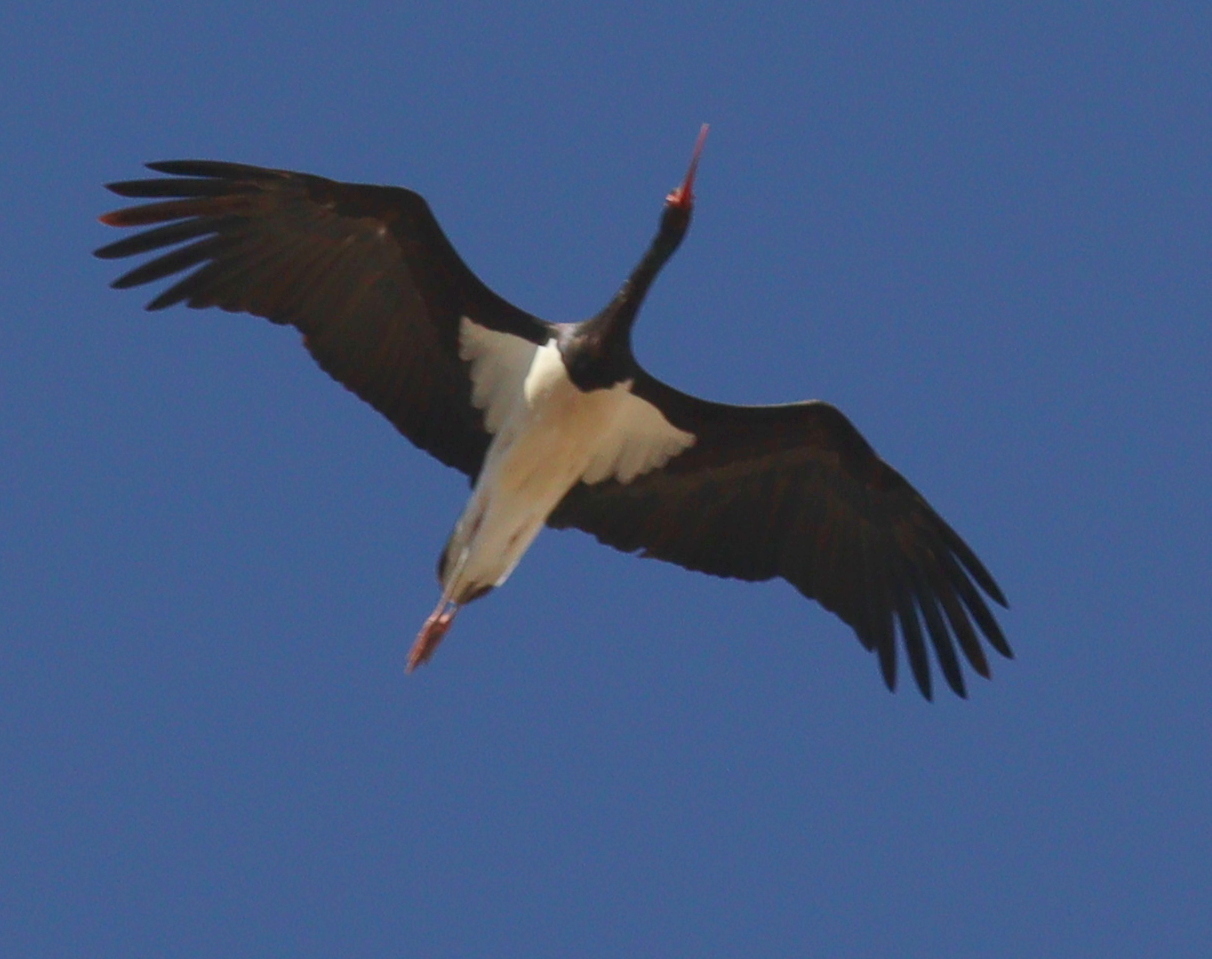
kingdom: Animalia
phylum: Chordata
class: Aves
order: Ciconiiformes
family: Ciconiidae
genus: Ciconia
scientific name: Ciconia nigra
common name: Black stork
